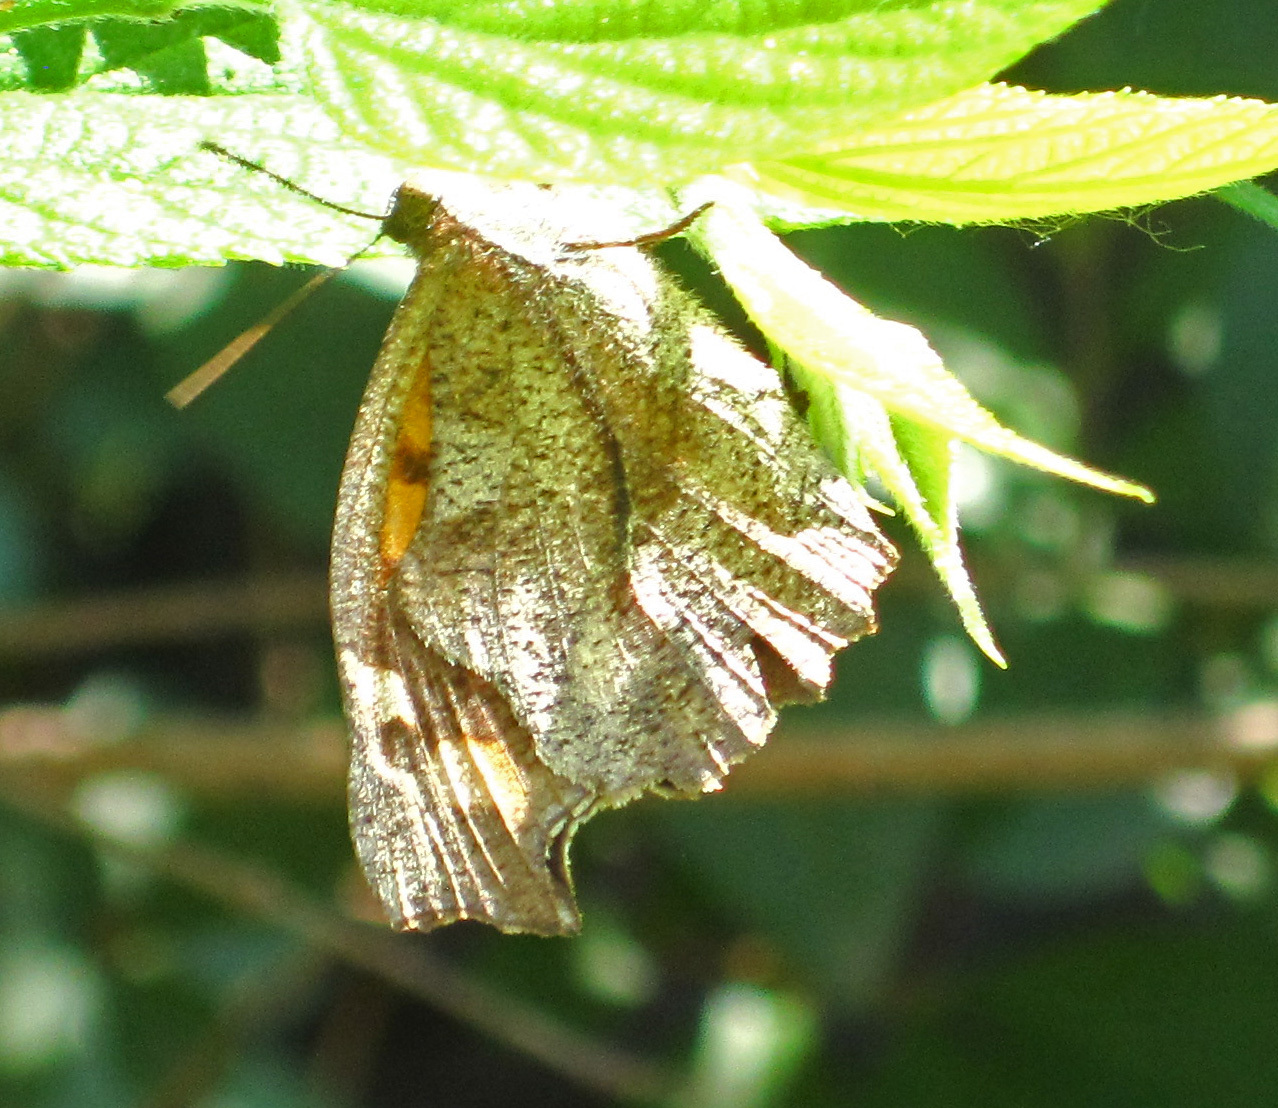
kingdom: Animalia
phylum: Arthropoda
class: Insecta
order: Lepidoptera
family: Nymphalidae
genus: Libythea
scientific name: Libythea celtis
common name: Nettle-tree butterfly
